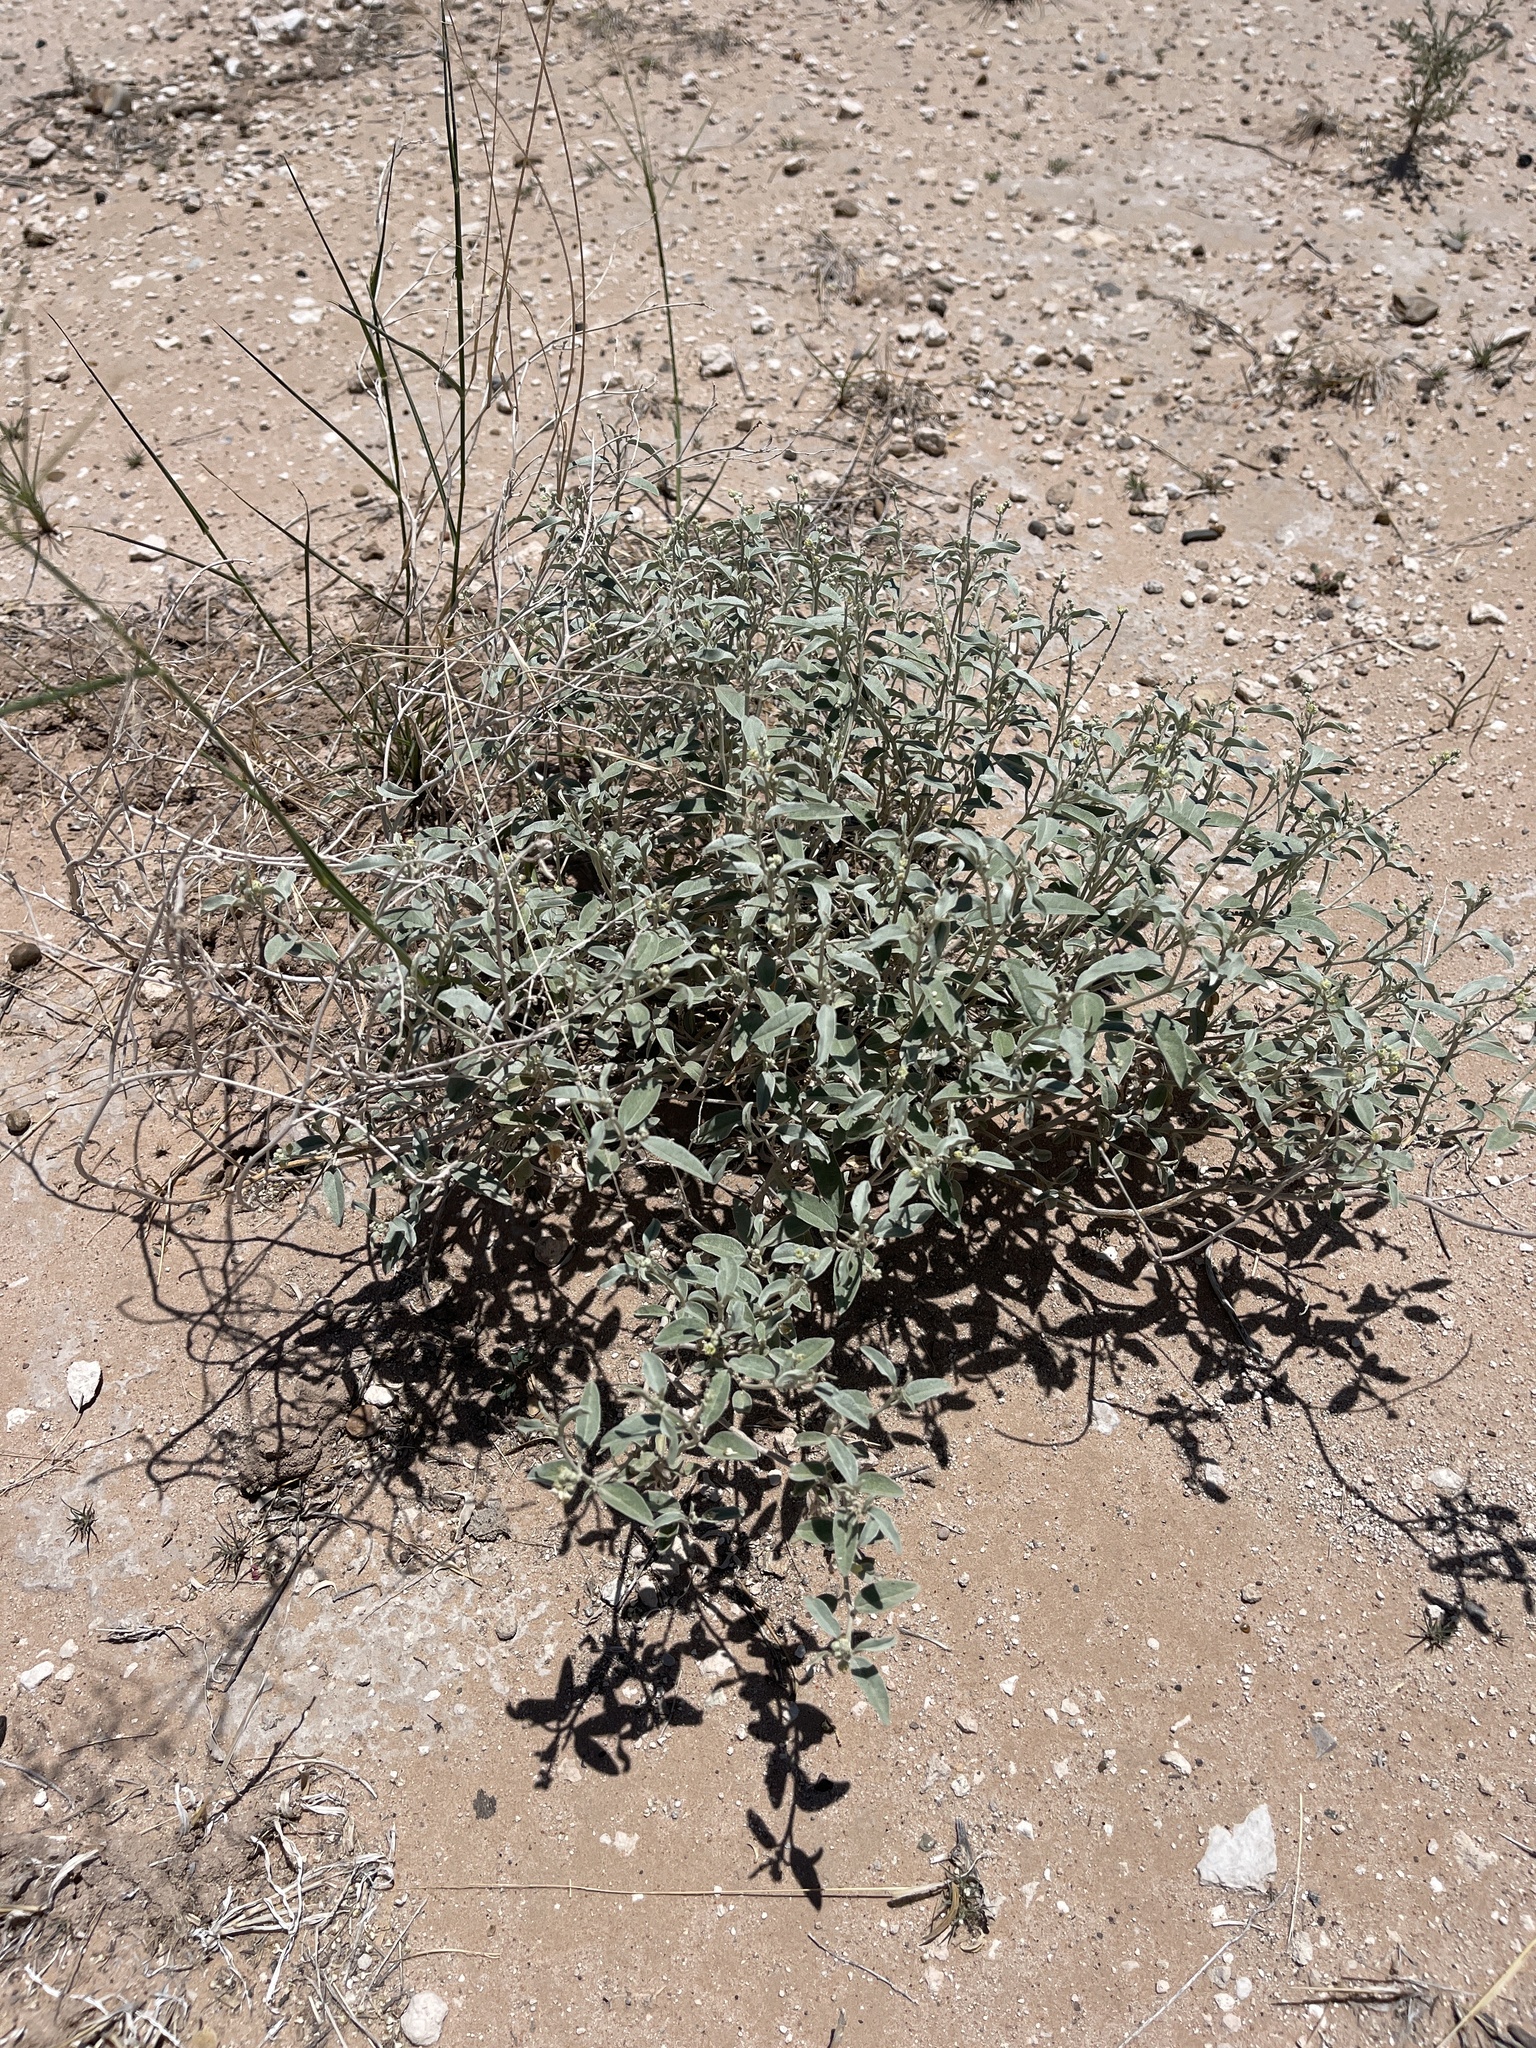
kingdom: Plantae
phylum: Tracheophyta
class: Magnoliopsida
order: Malpighiales
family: Euphorbiaceae
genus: Croton
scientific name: Croton dioicus
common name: Grassland croton
